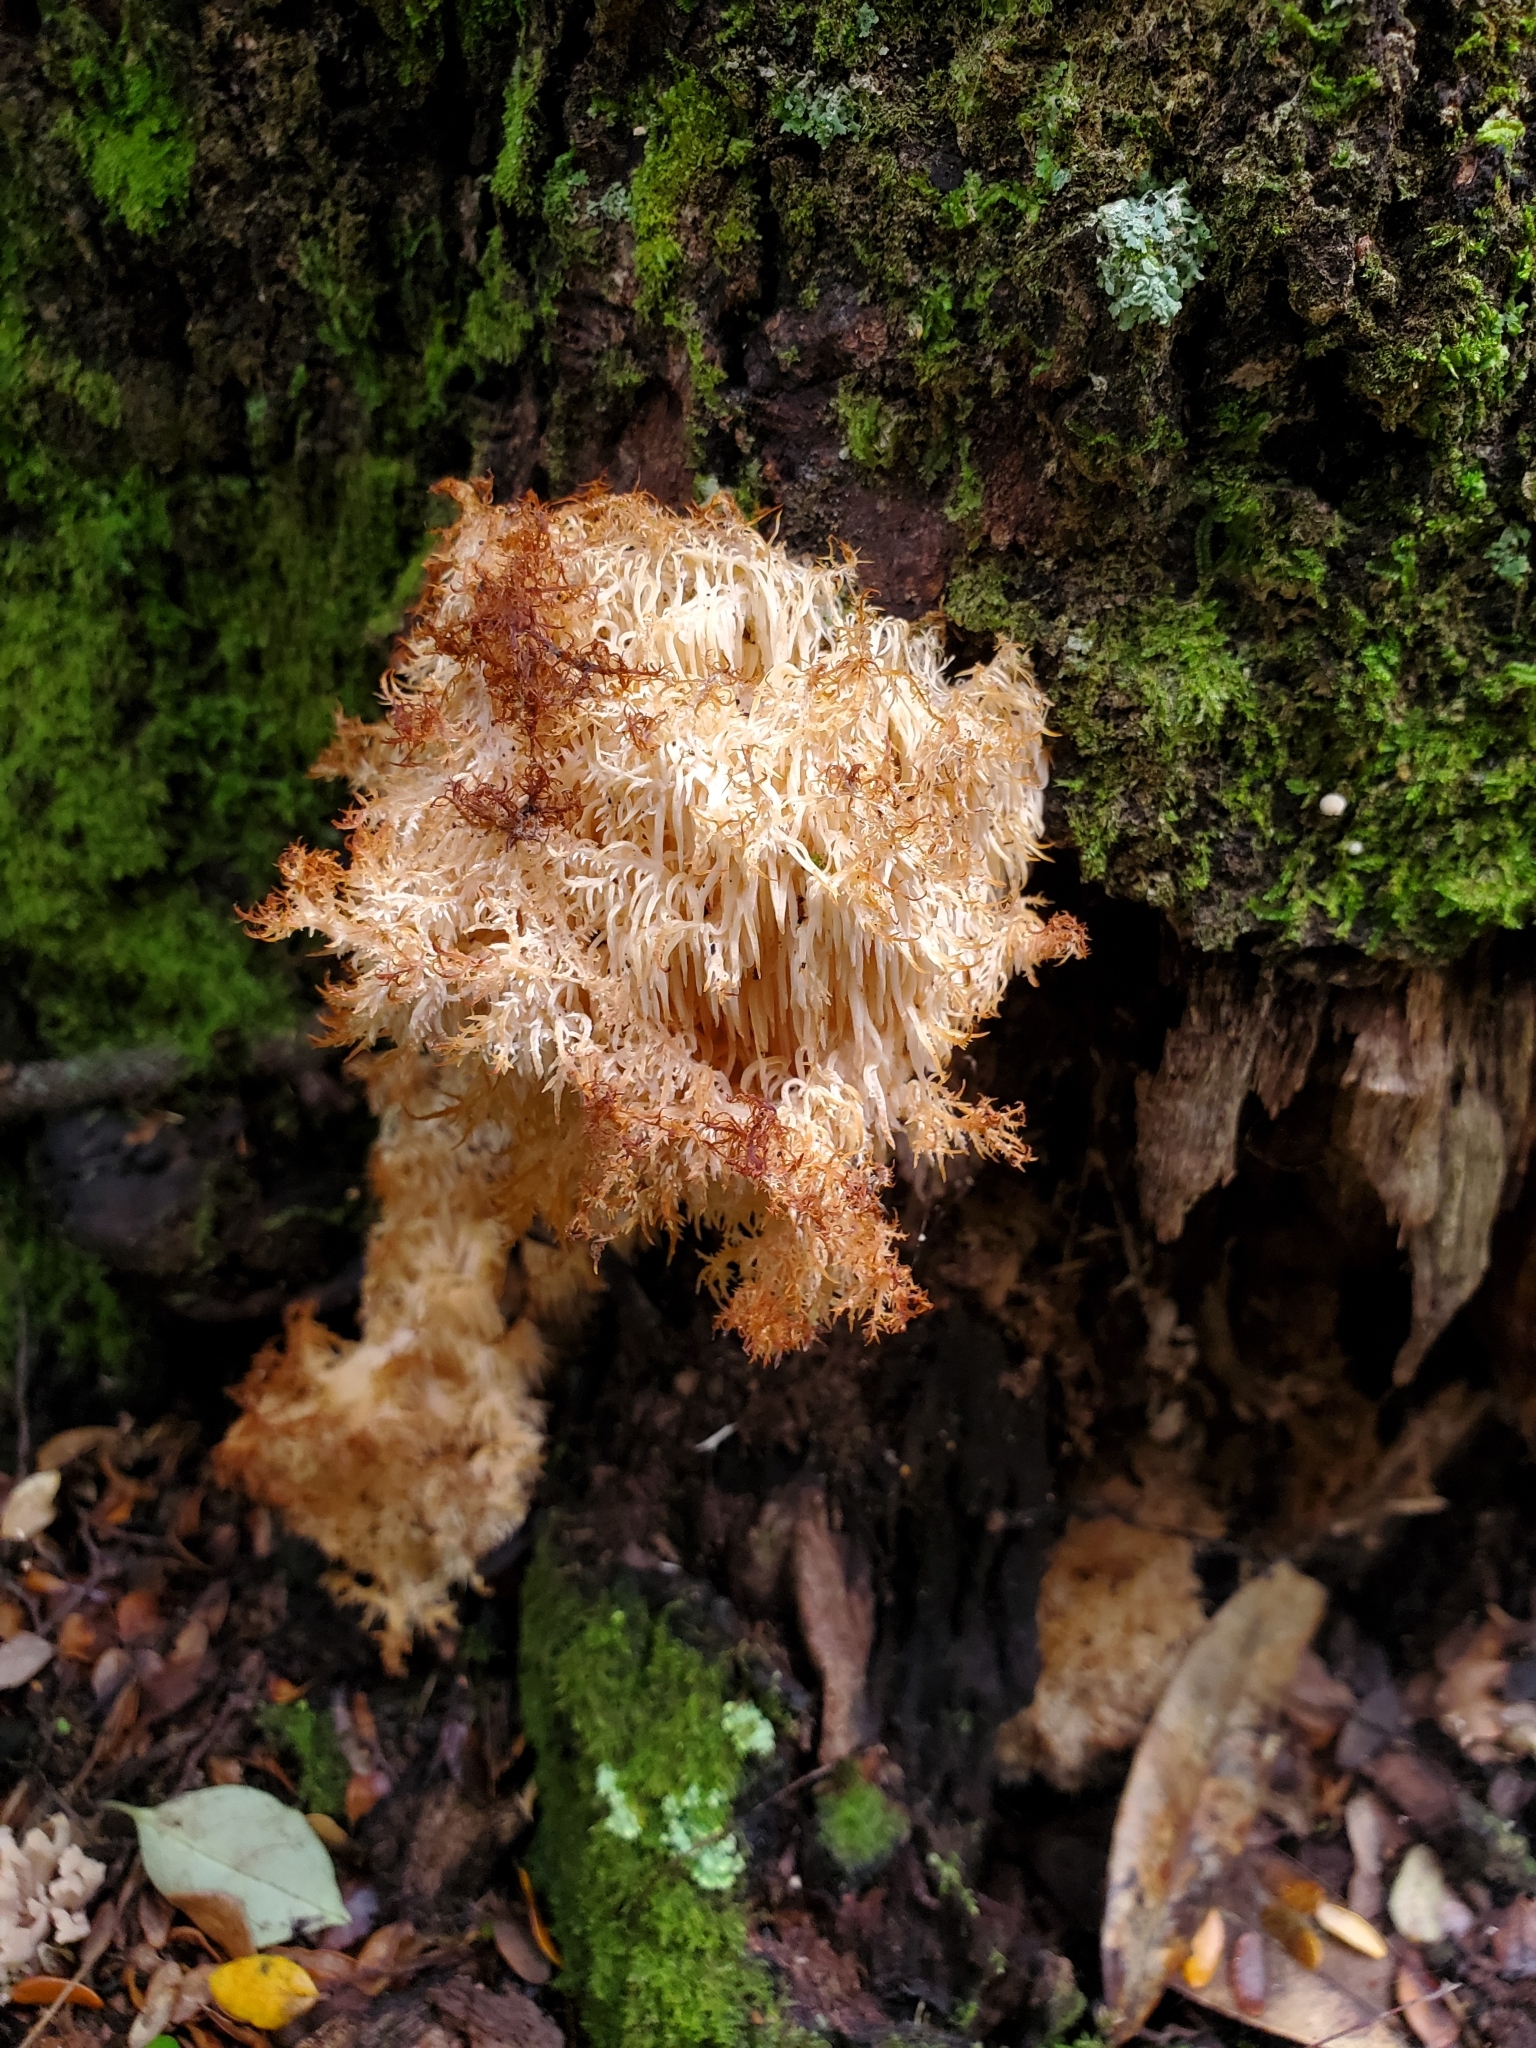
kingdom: Fungi
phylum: Basidiomycota
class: Agaricomycetes
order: Russulales
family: Hericiaceae
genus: Hericium
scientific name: Hericium novae-zealandiae
